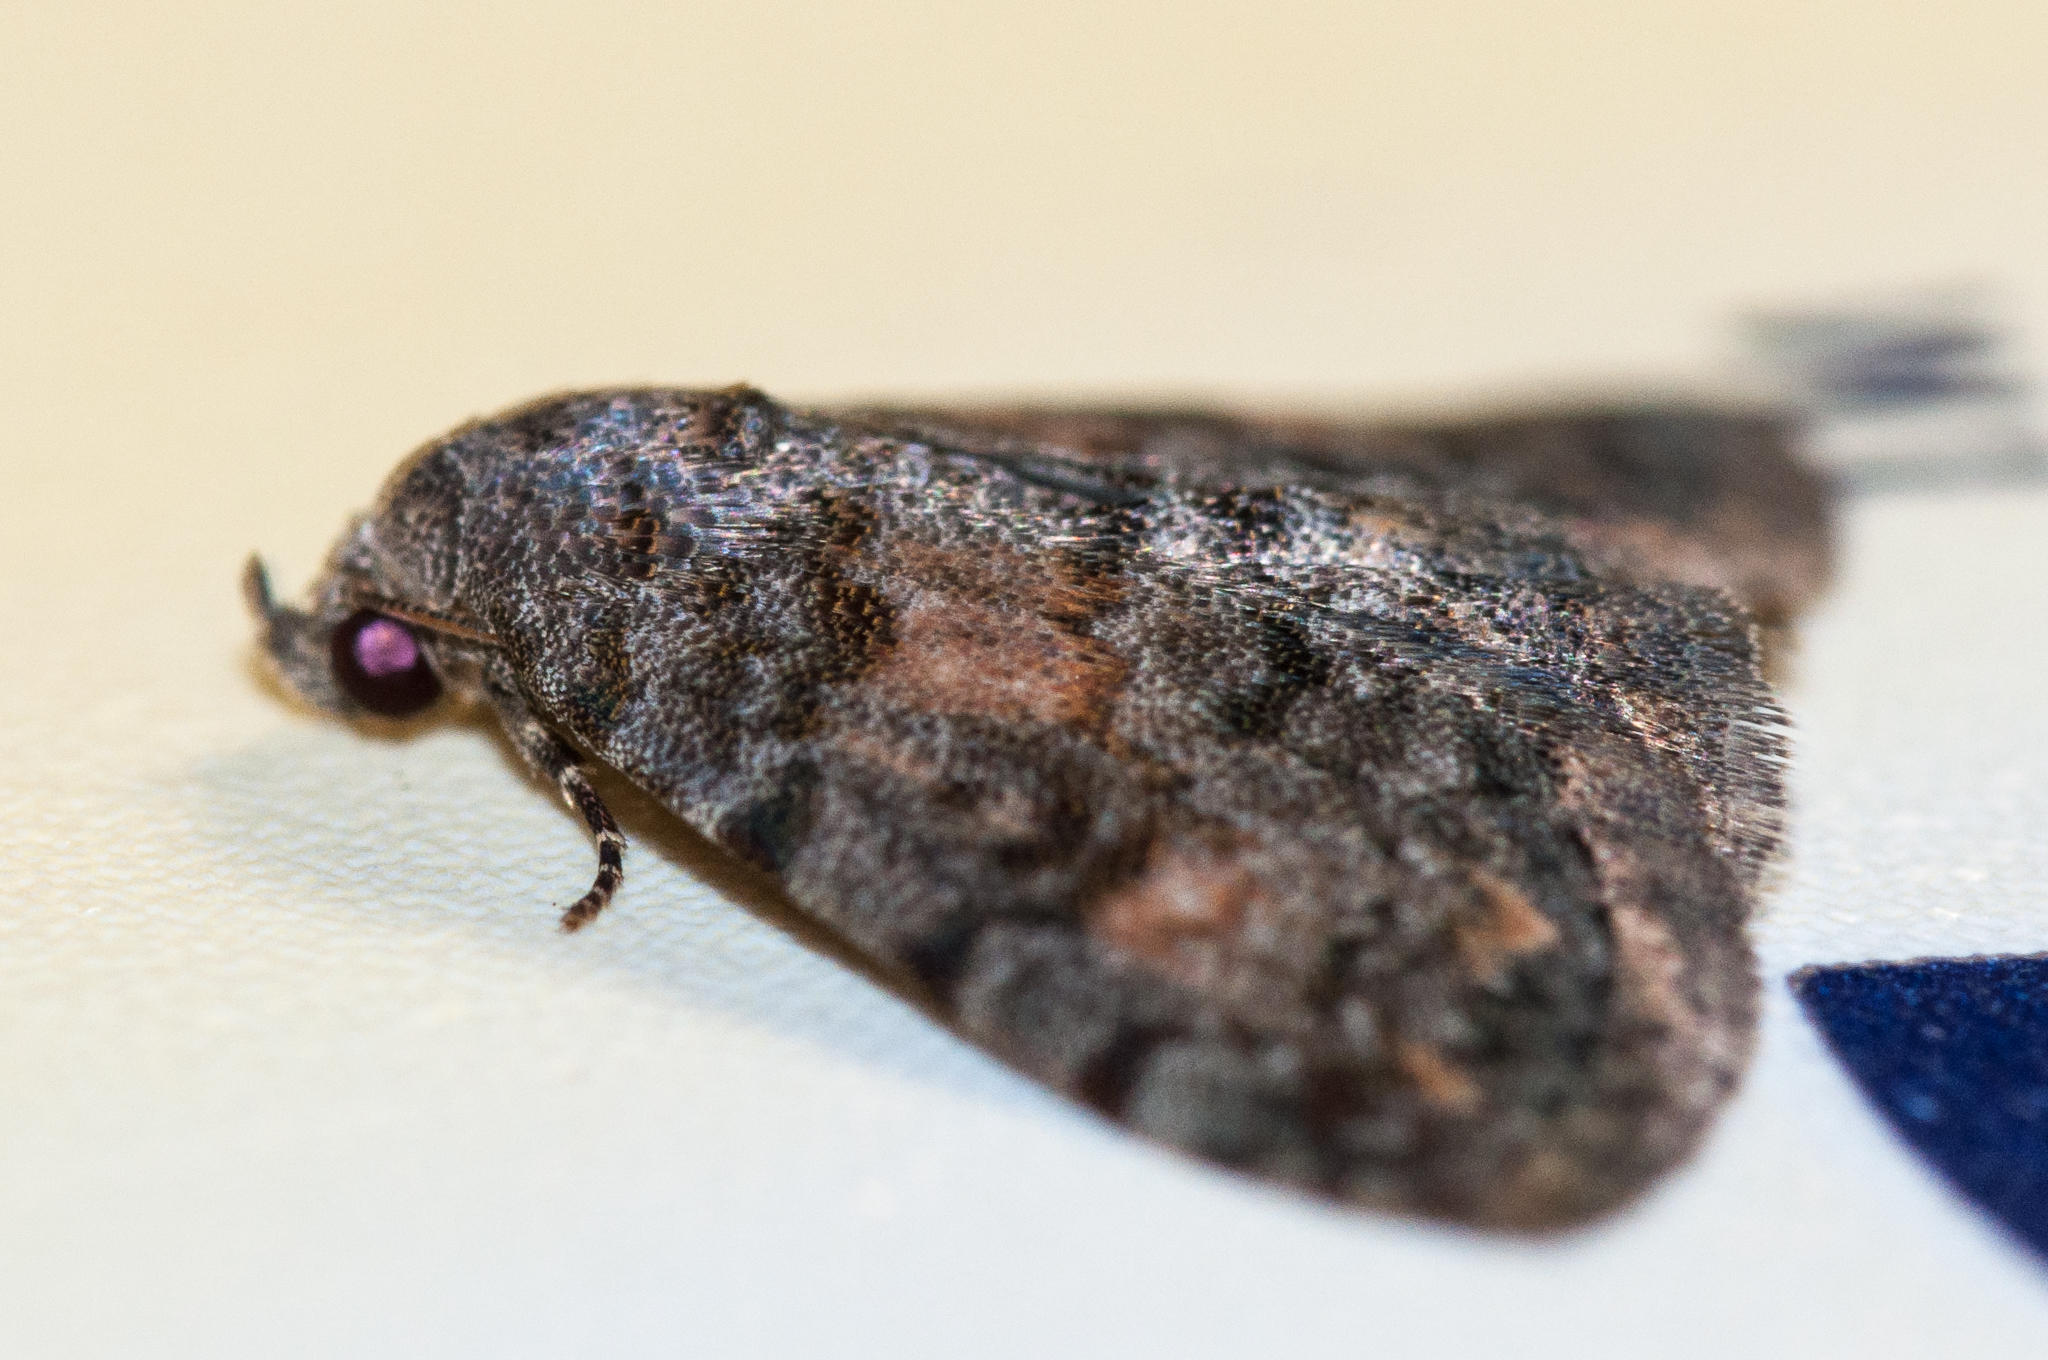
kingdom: Animalia
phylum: Arthropoda
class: Insecta
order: Lepidoptera
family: Noctuidae
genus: Metachrostis
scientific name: Metachrostis snelleni
